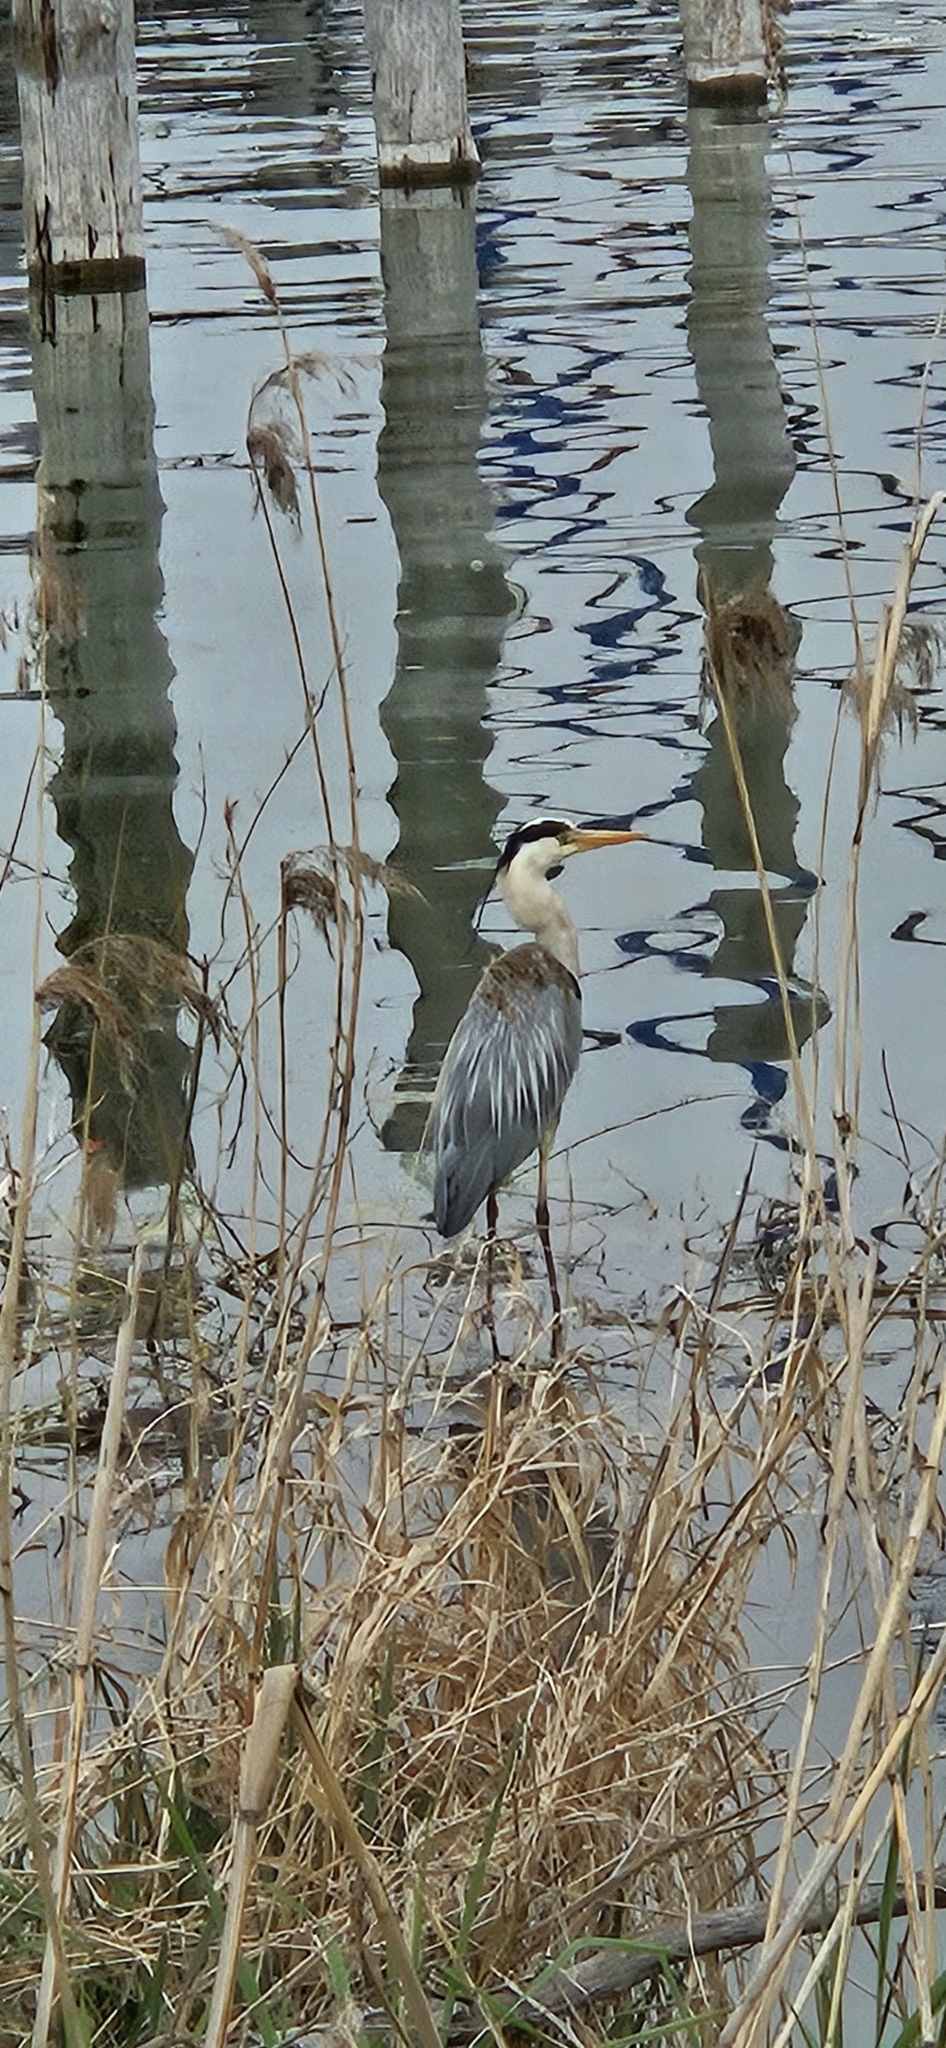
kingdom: Animalia
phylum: Chordata
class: Aves
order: Pelecaniformes
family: Ardeidae
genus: Ardea
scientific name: Ardea cinerea
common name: Grey heron
